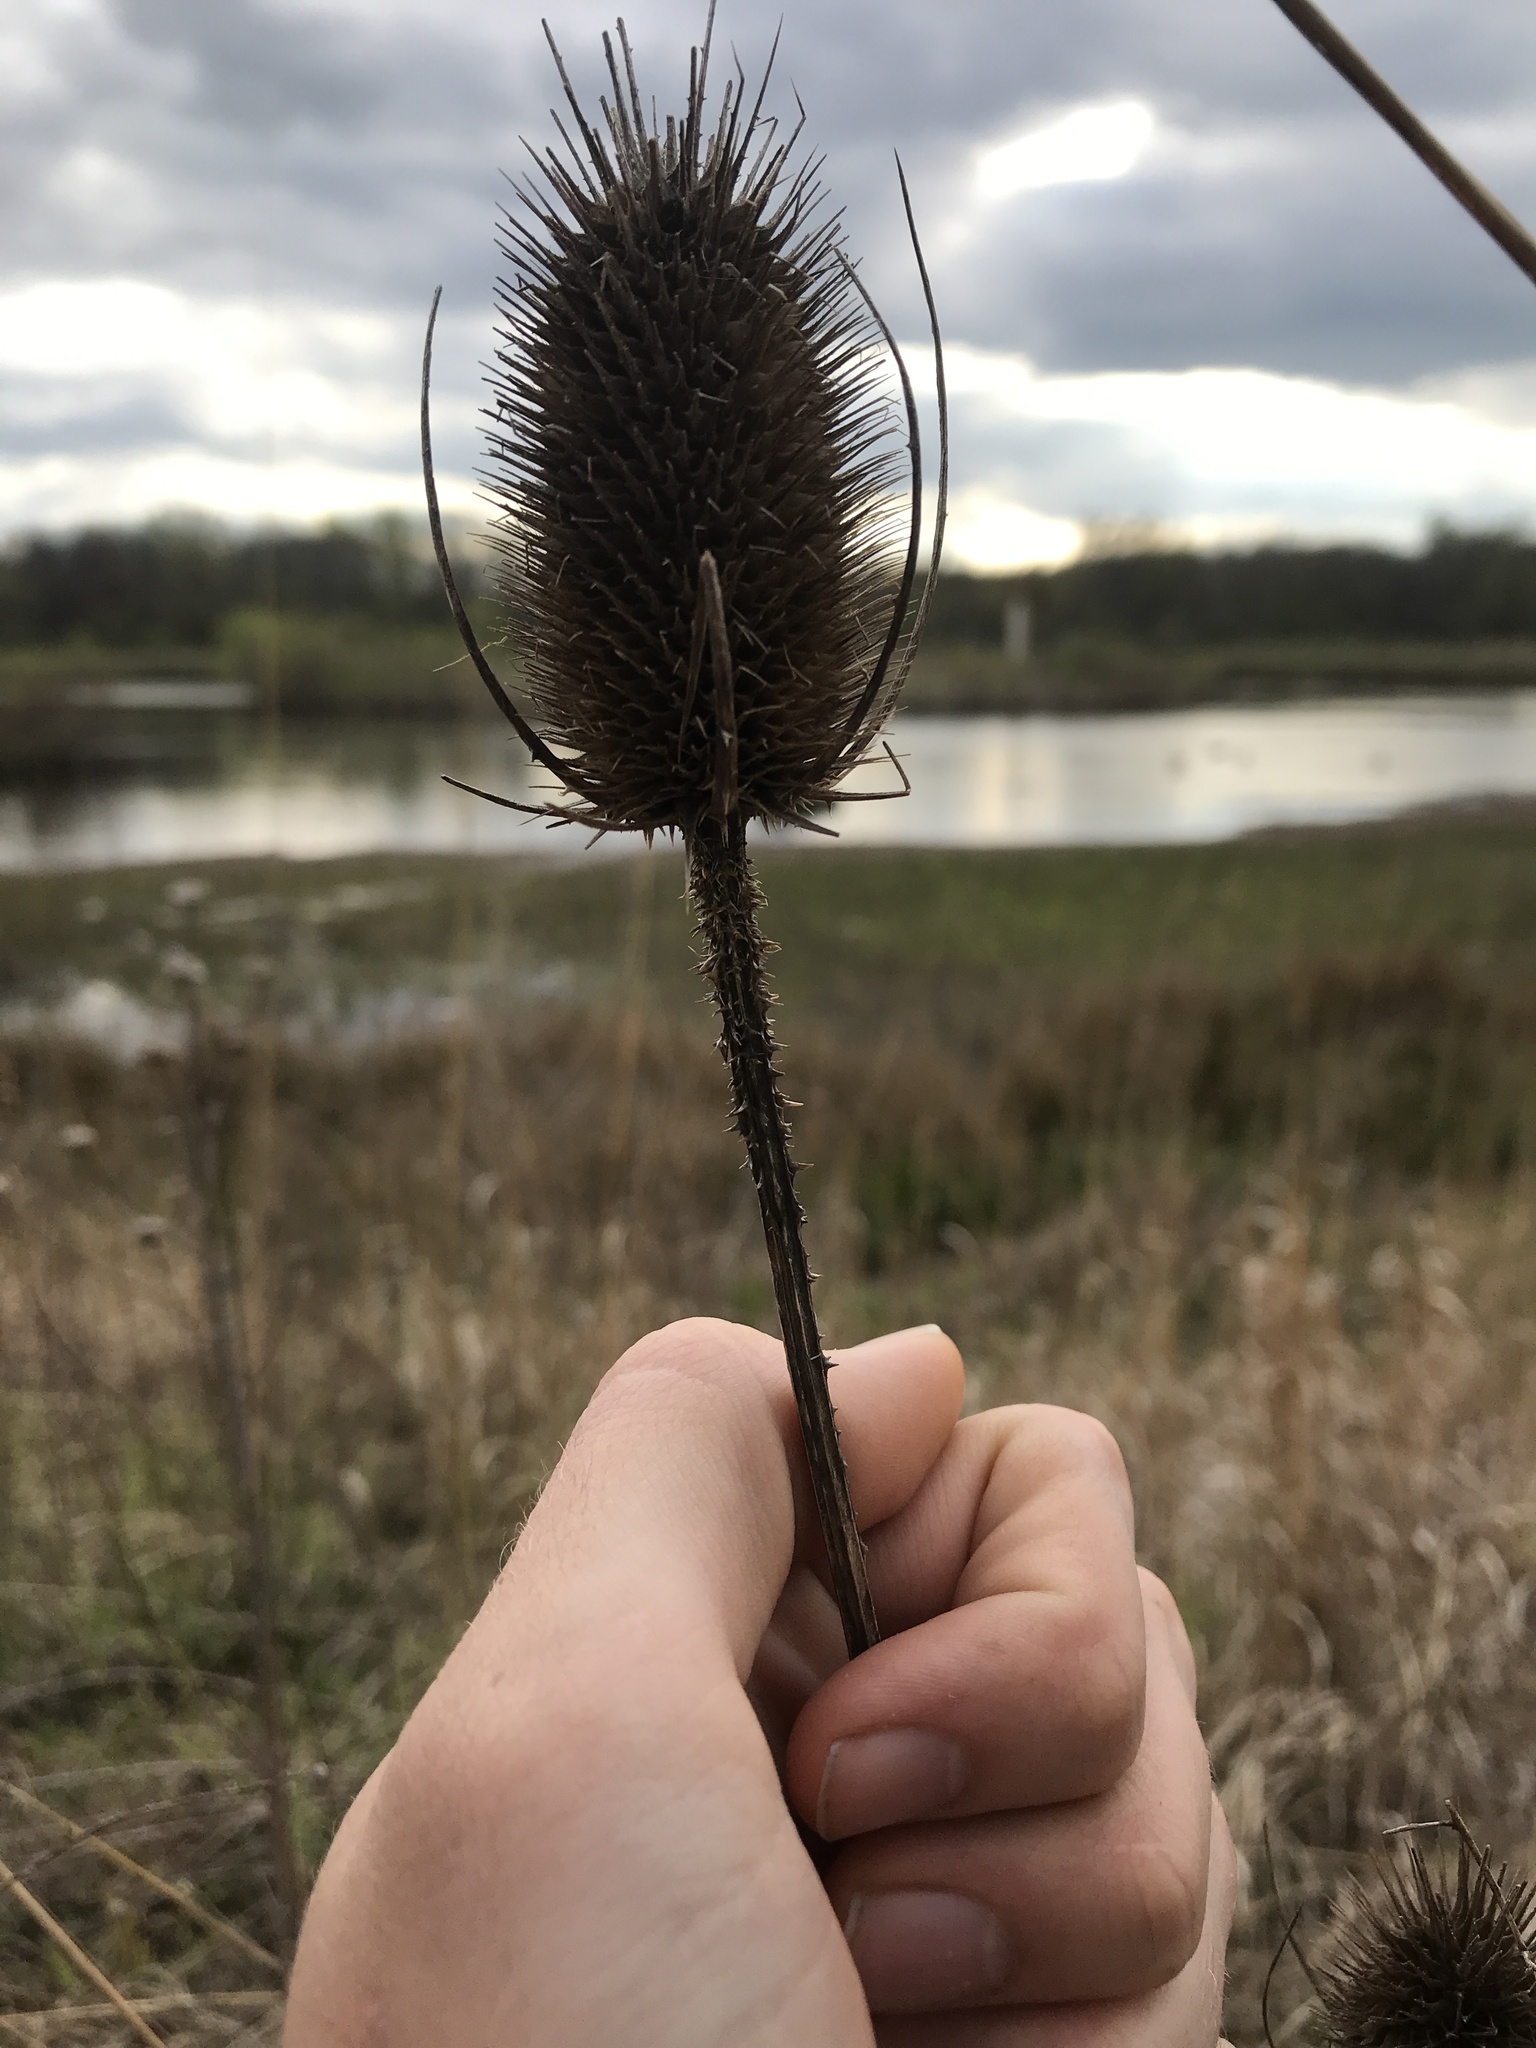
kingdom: Plantae
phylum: Tracheophyta
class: Magnoliopsida
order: Dipsacales
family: Caprifoliaceae
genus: Dipsacus
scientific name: Dipsacus fullonum
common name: Teasel
